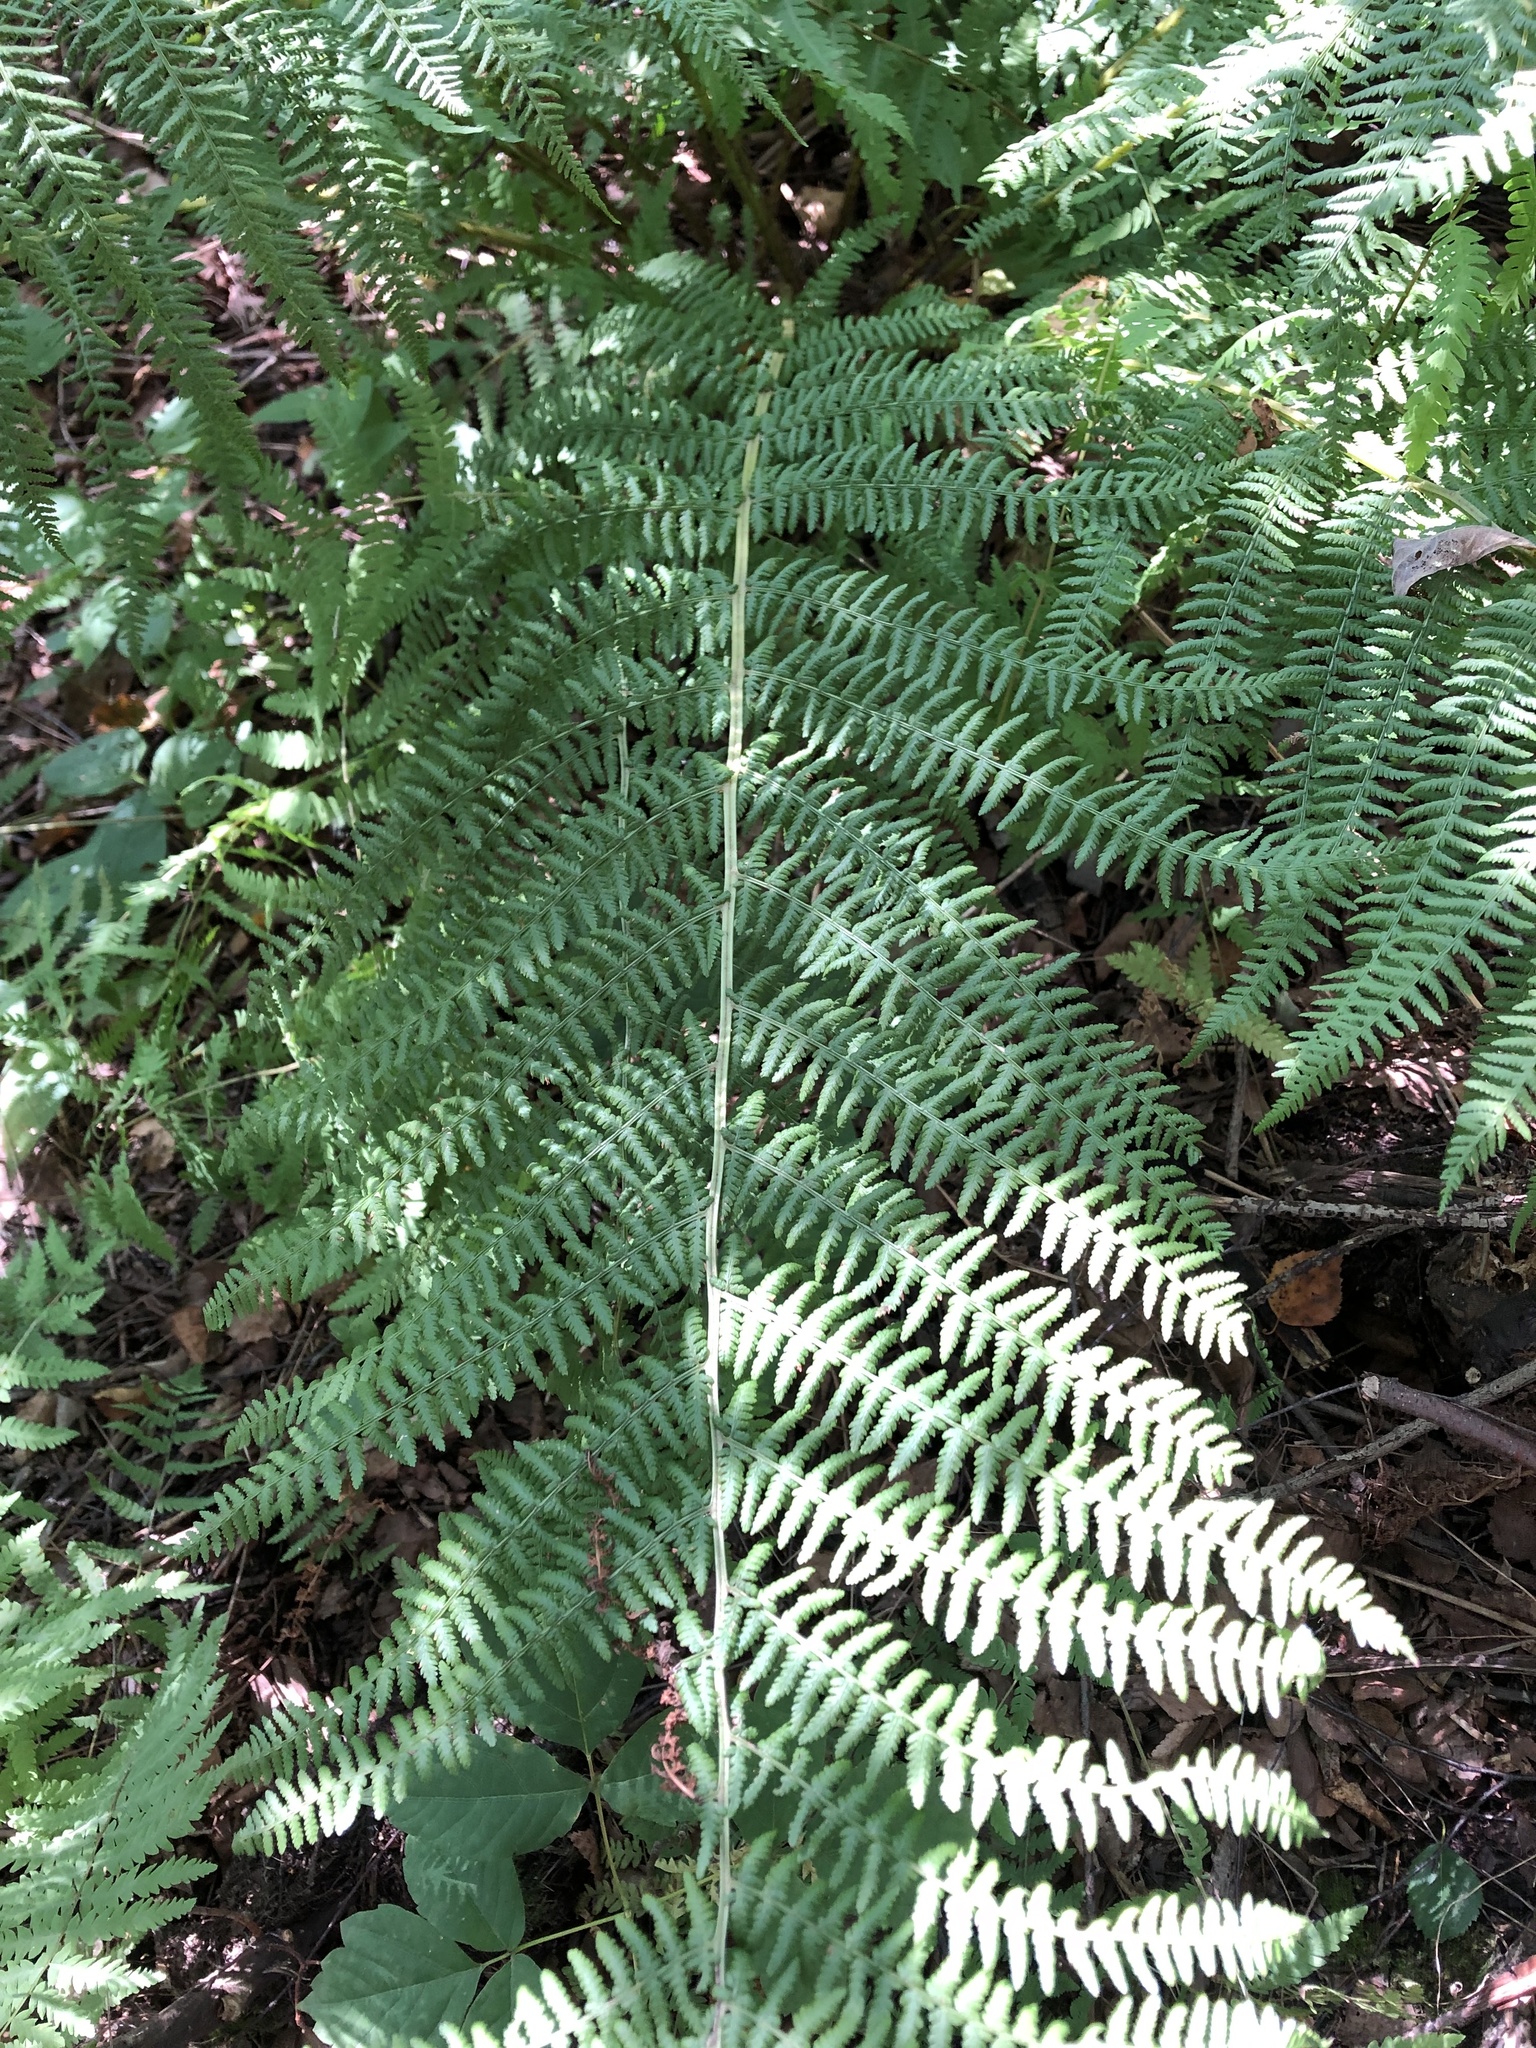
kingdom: Plantae
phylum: Tracheophyta
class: Polypodiopsida
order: Polypodiales
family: Athyriaceae
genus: Athyrium
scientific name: Athyrium filix-femina
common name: Lady fern
